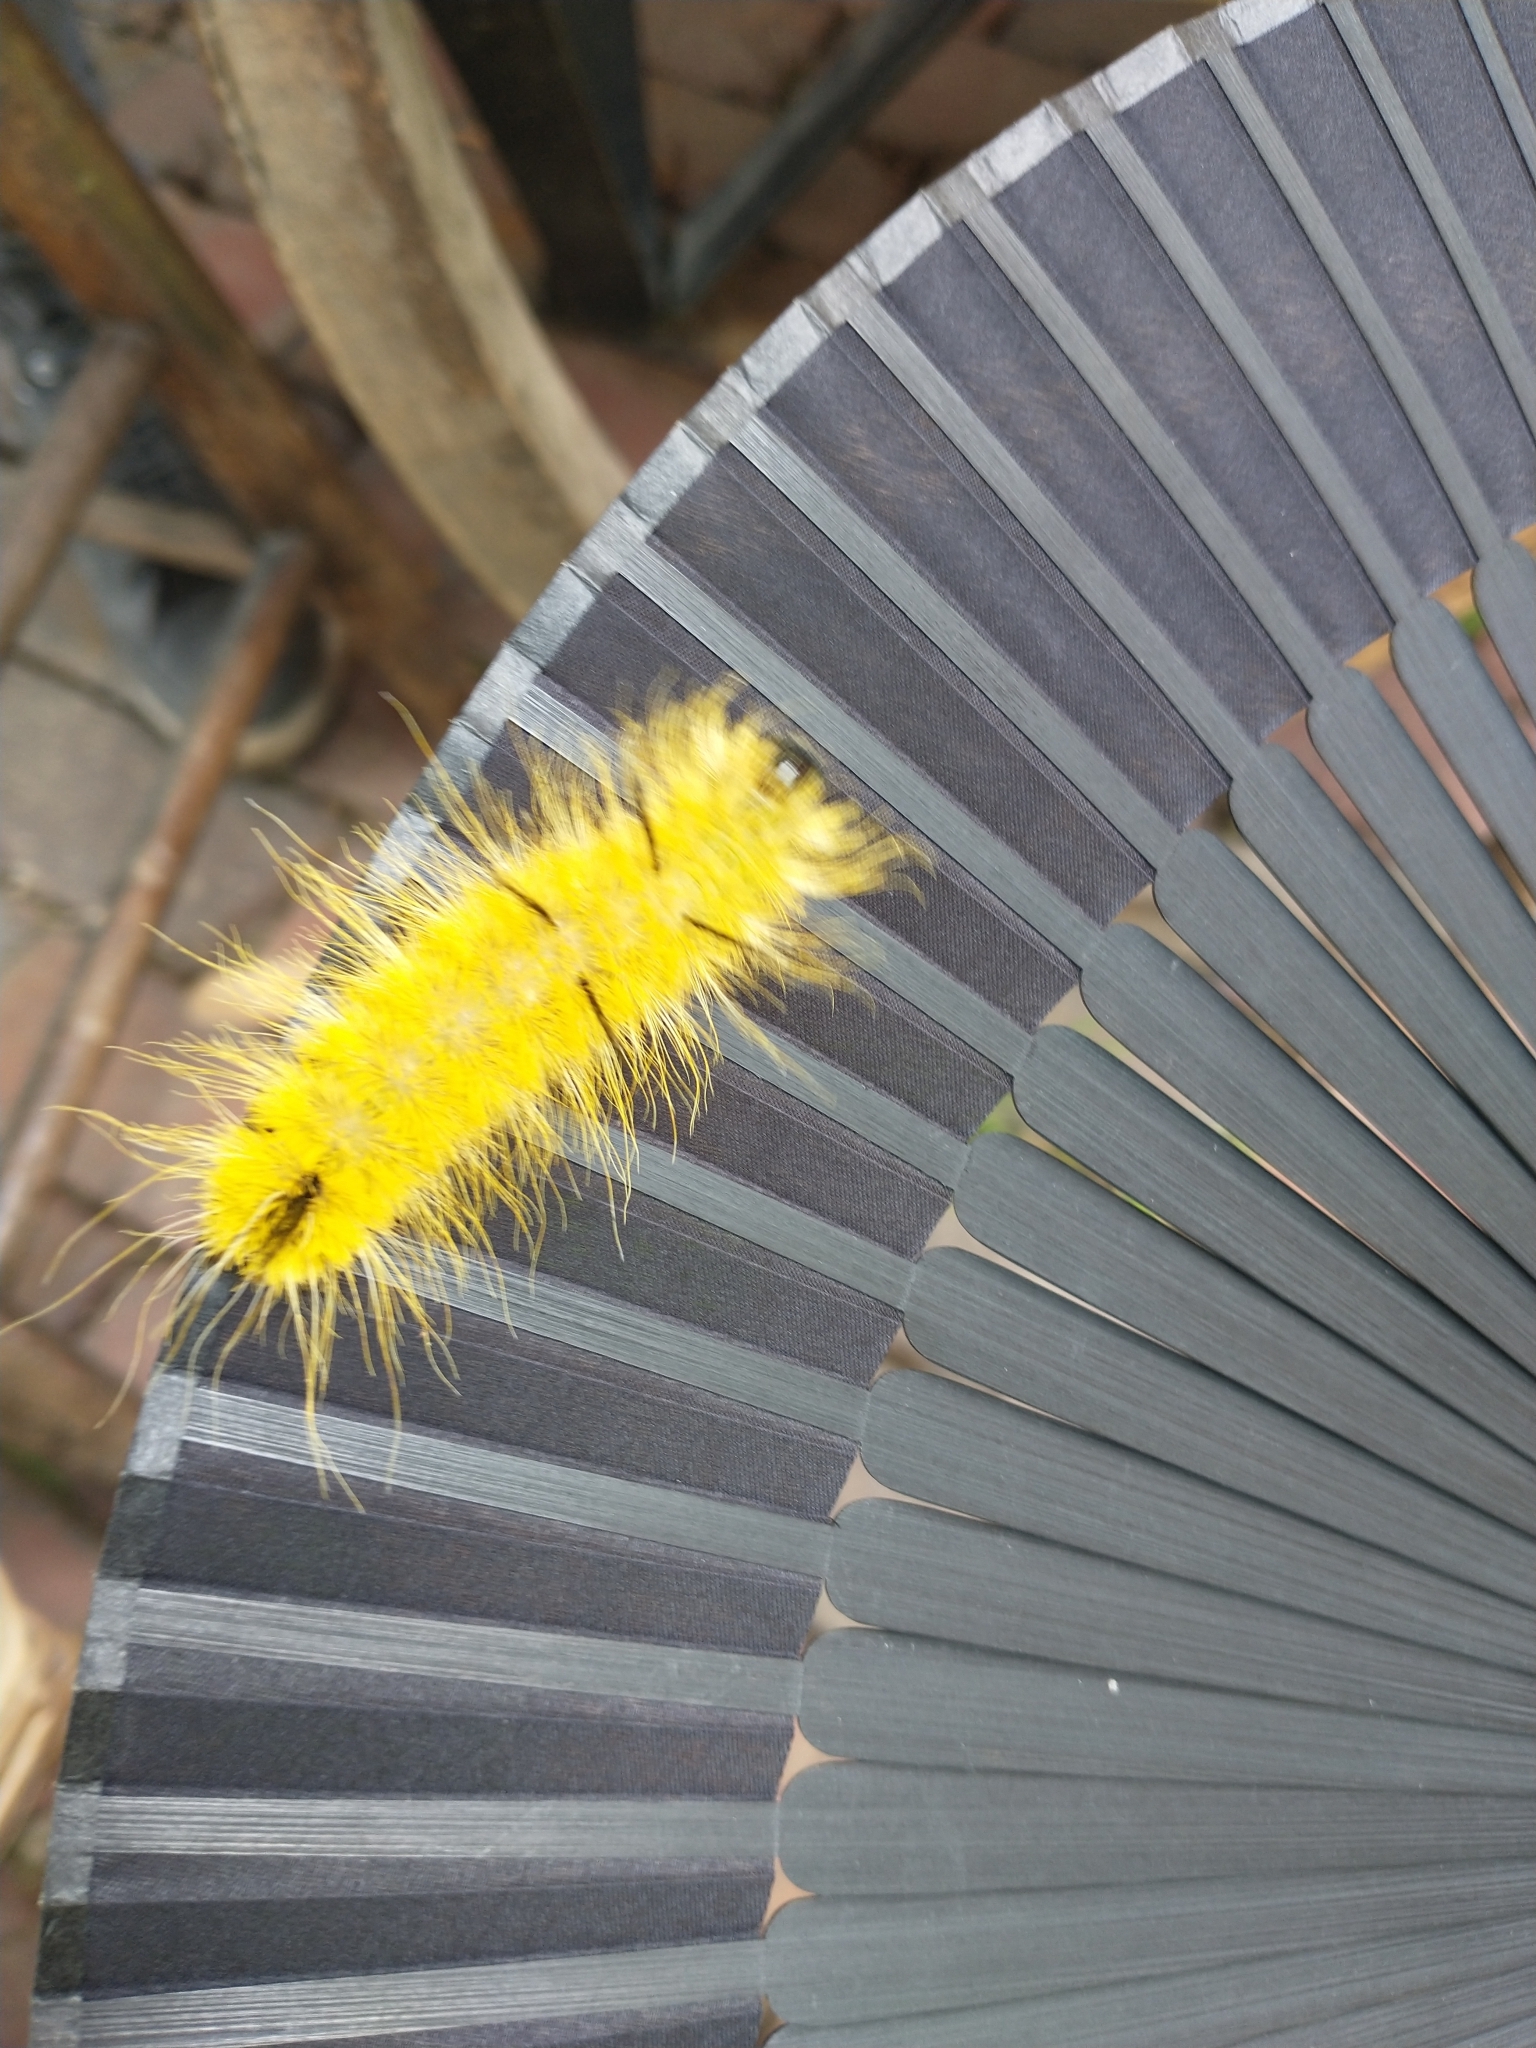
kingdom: Animalia
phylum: Arthropoda
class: Insecta
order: Lepidoptera
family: Noctuidae
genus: Acronicta
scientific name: Acronicta americana
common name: American dagger
